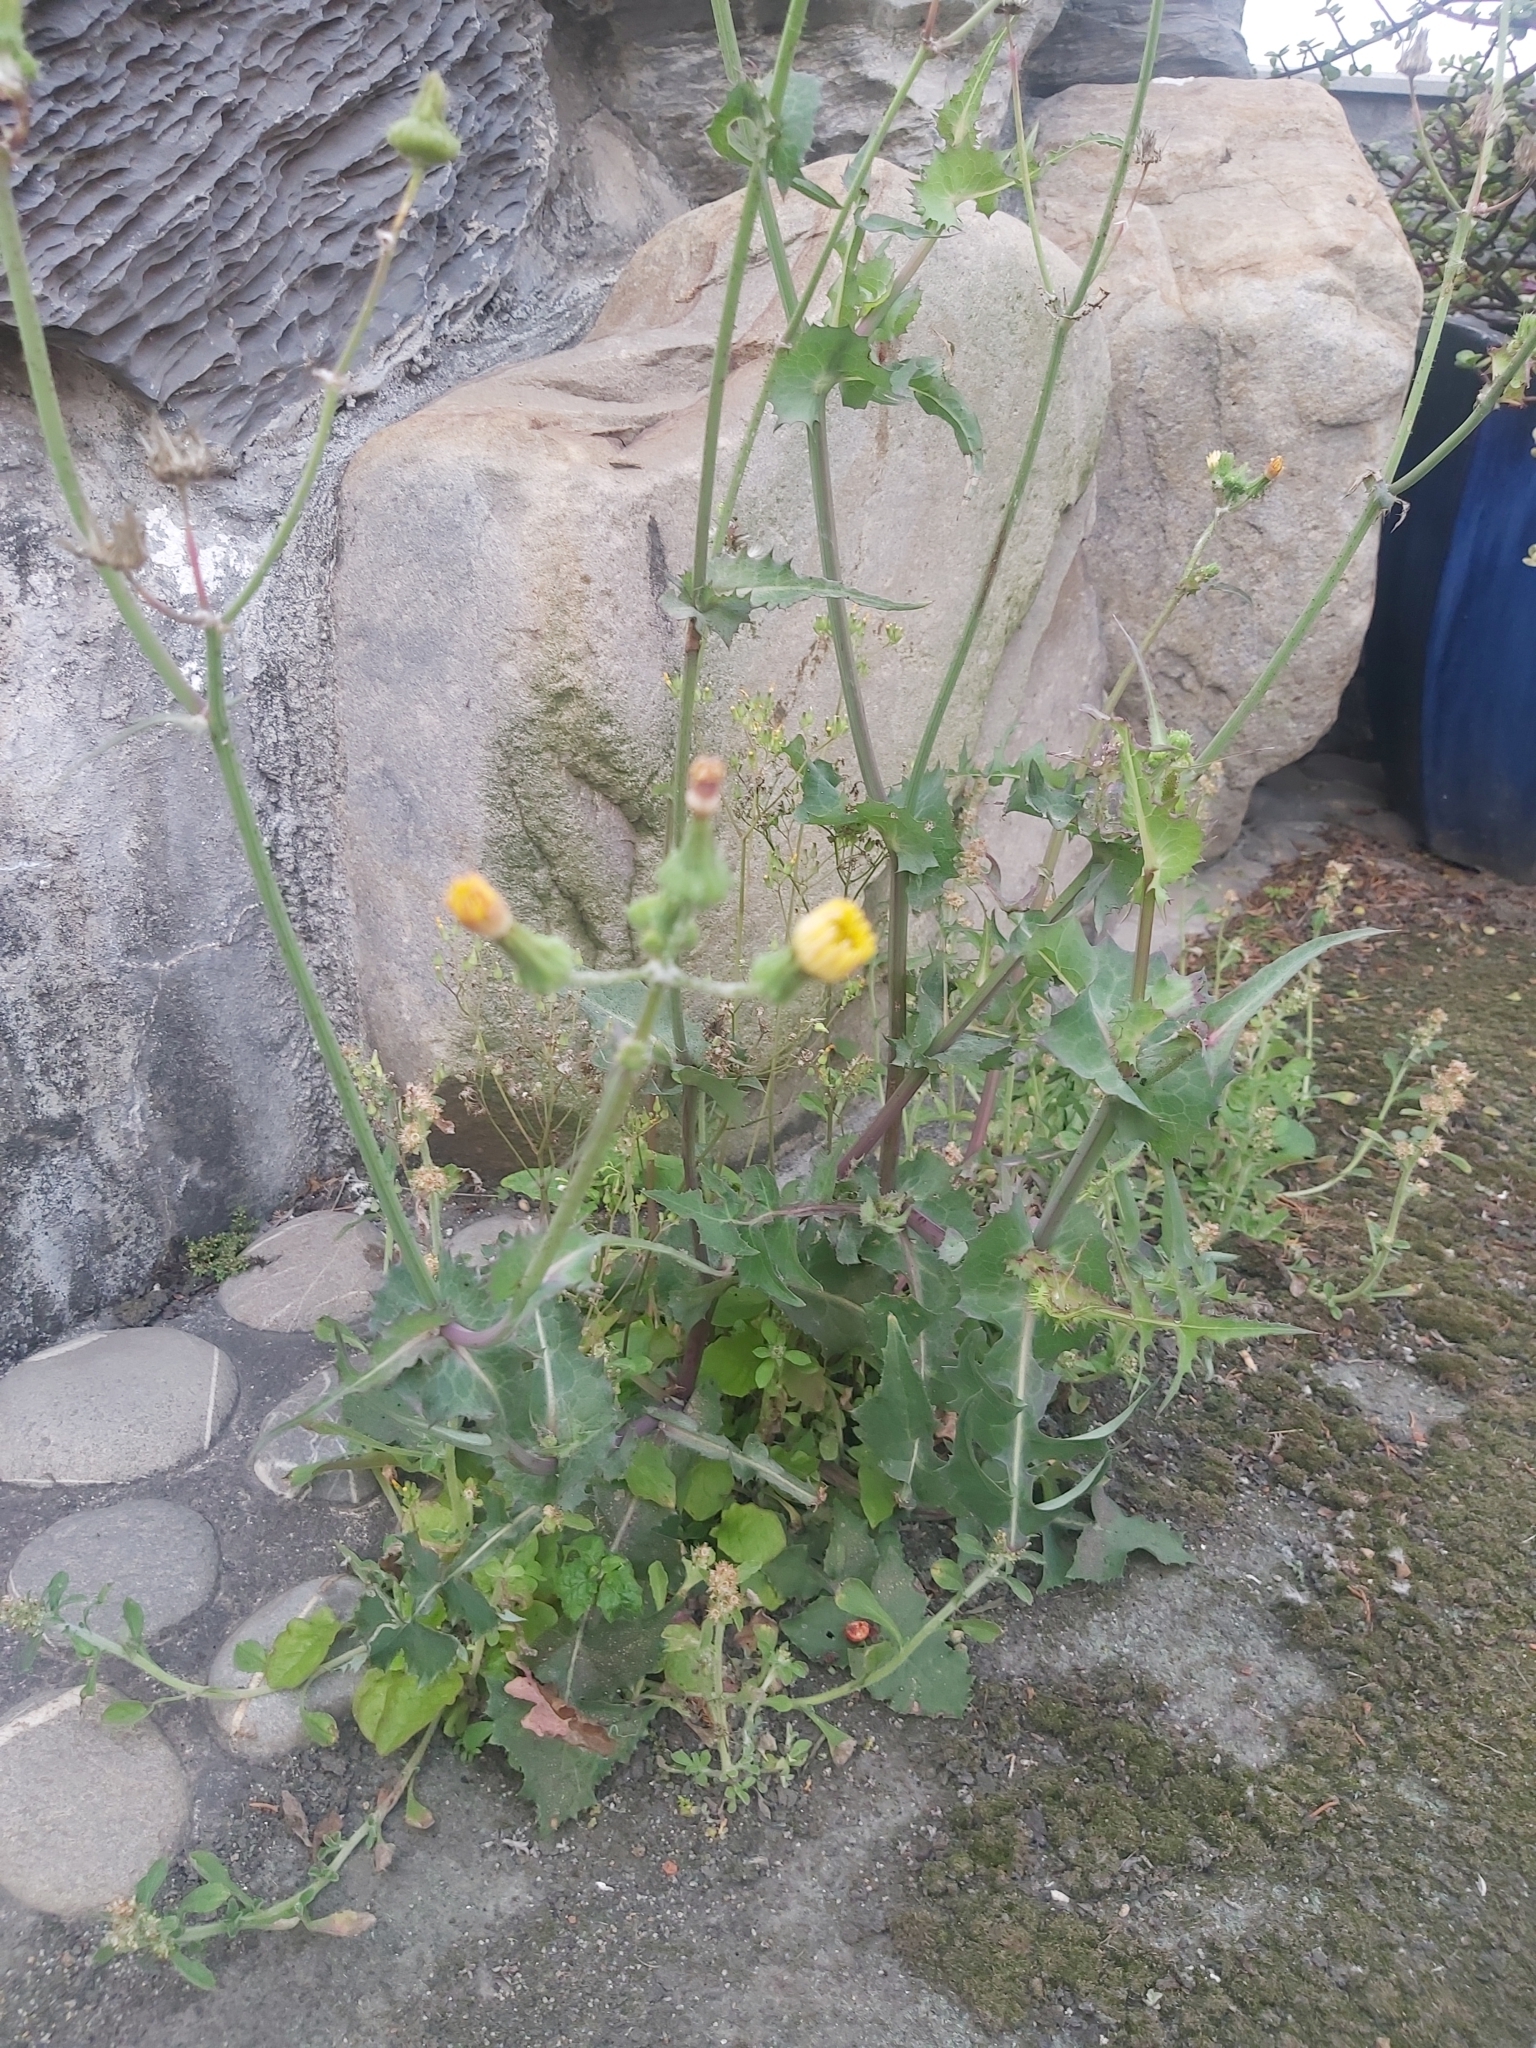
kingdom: Plantae
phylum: Tracheophyta
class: Magnoliopsida
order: Asterales
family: Asteraceae
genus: Sonchus
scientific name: Sonchus oleraceus
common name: Common sowthistle
